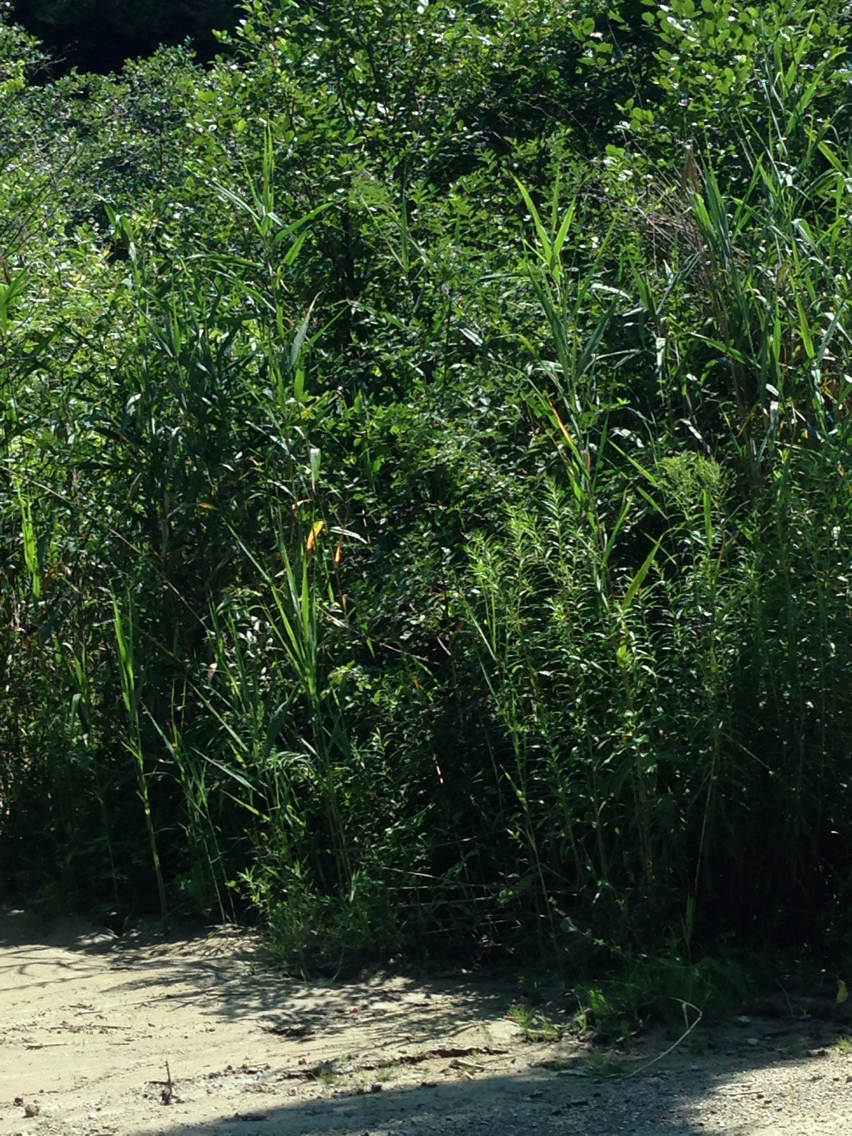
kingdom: Plantae
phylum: Tracheophyta
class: Liliopsida
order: Poales
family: Poaceae
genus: Phragmites
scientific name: Phragmites australis
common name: Common reed
